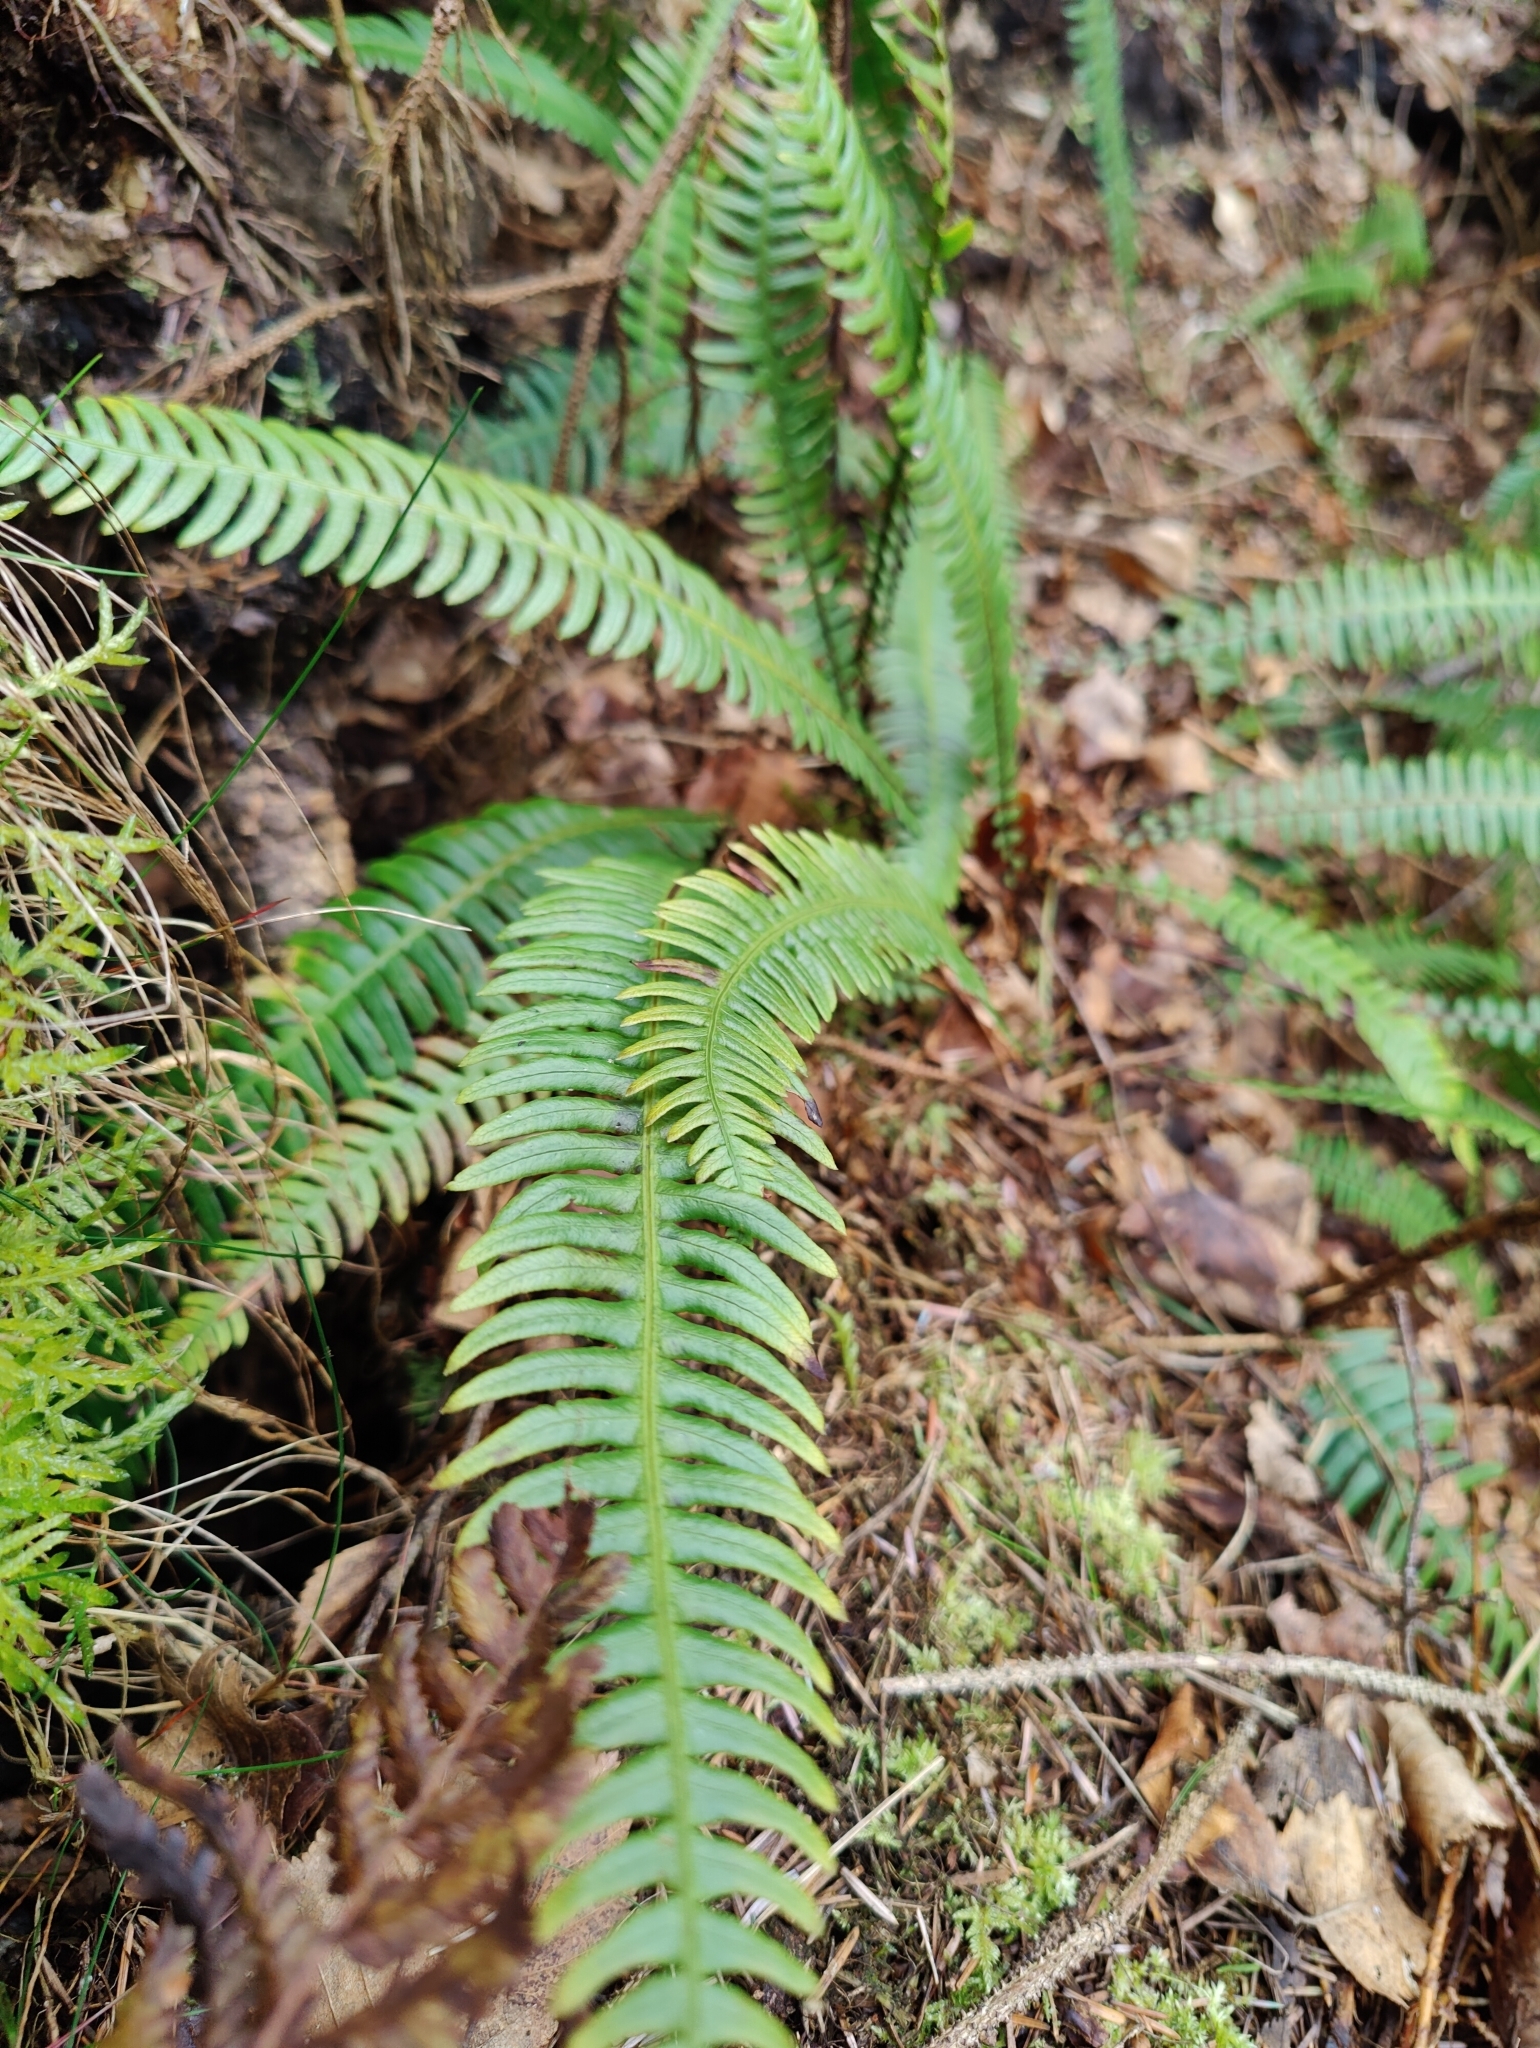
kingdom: Plantae
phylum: Tracheophyta
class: Polypodiopsida
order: Polypodiales
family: Blechnaceae
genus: Struthiopteris
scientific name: Struthiopteris spicant
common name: Deer fern
